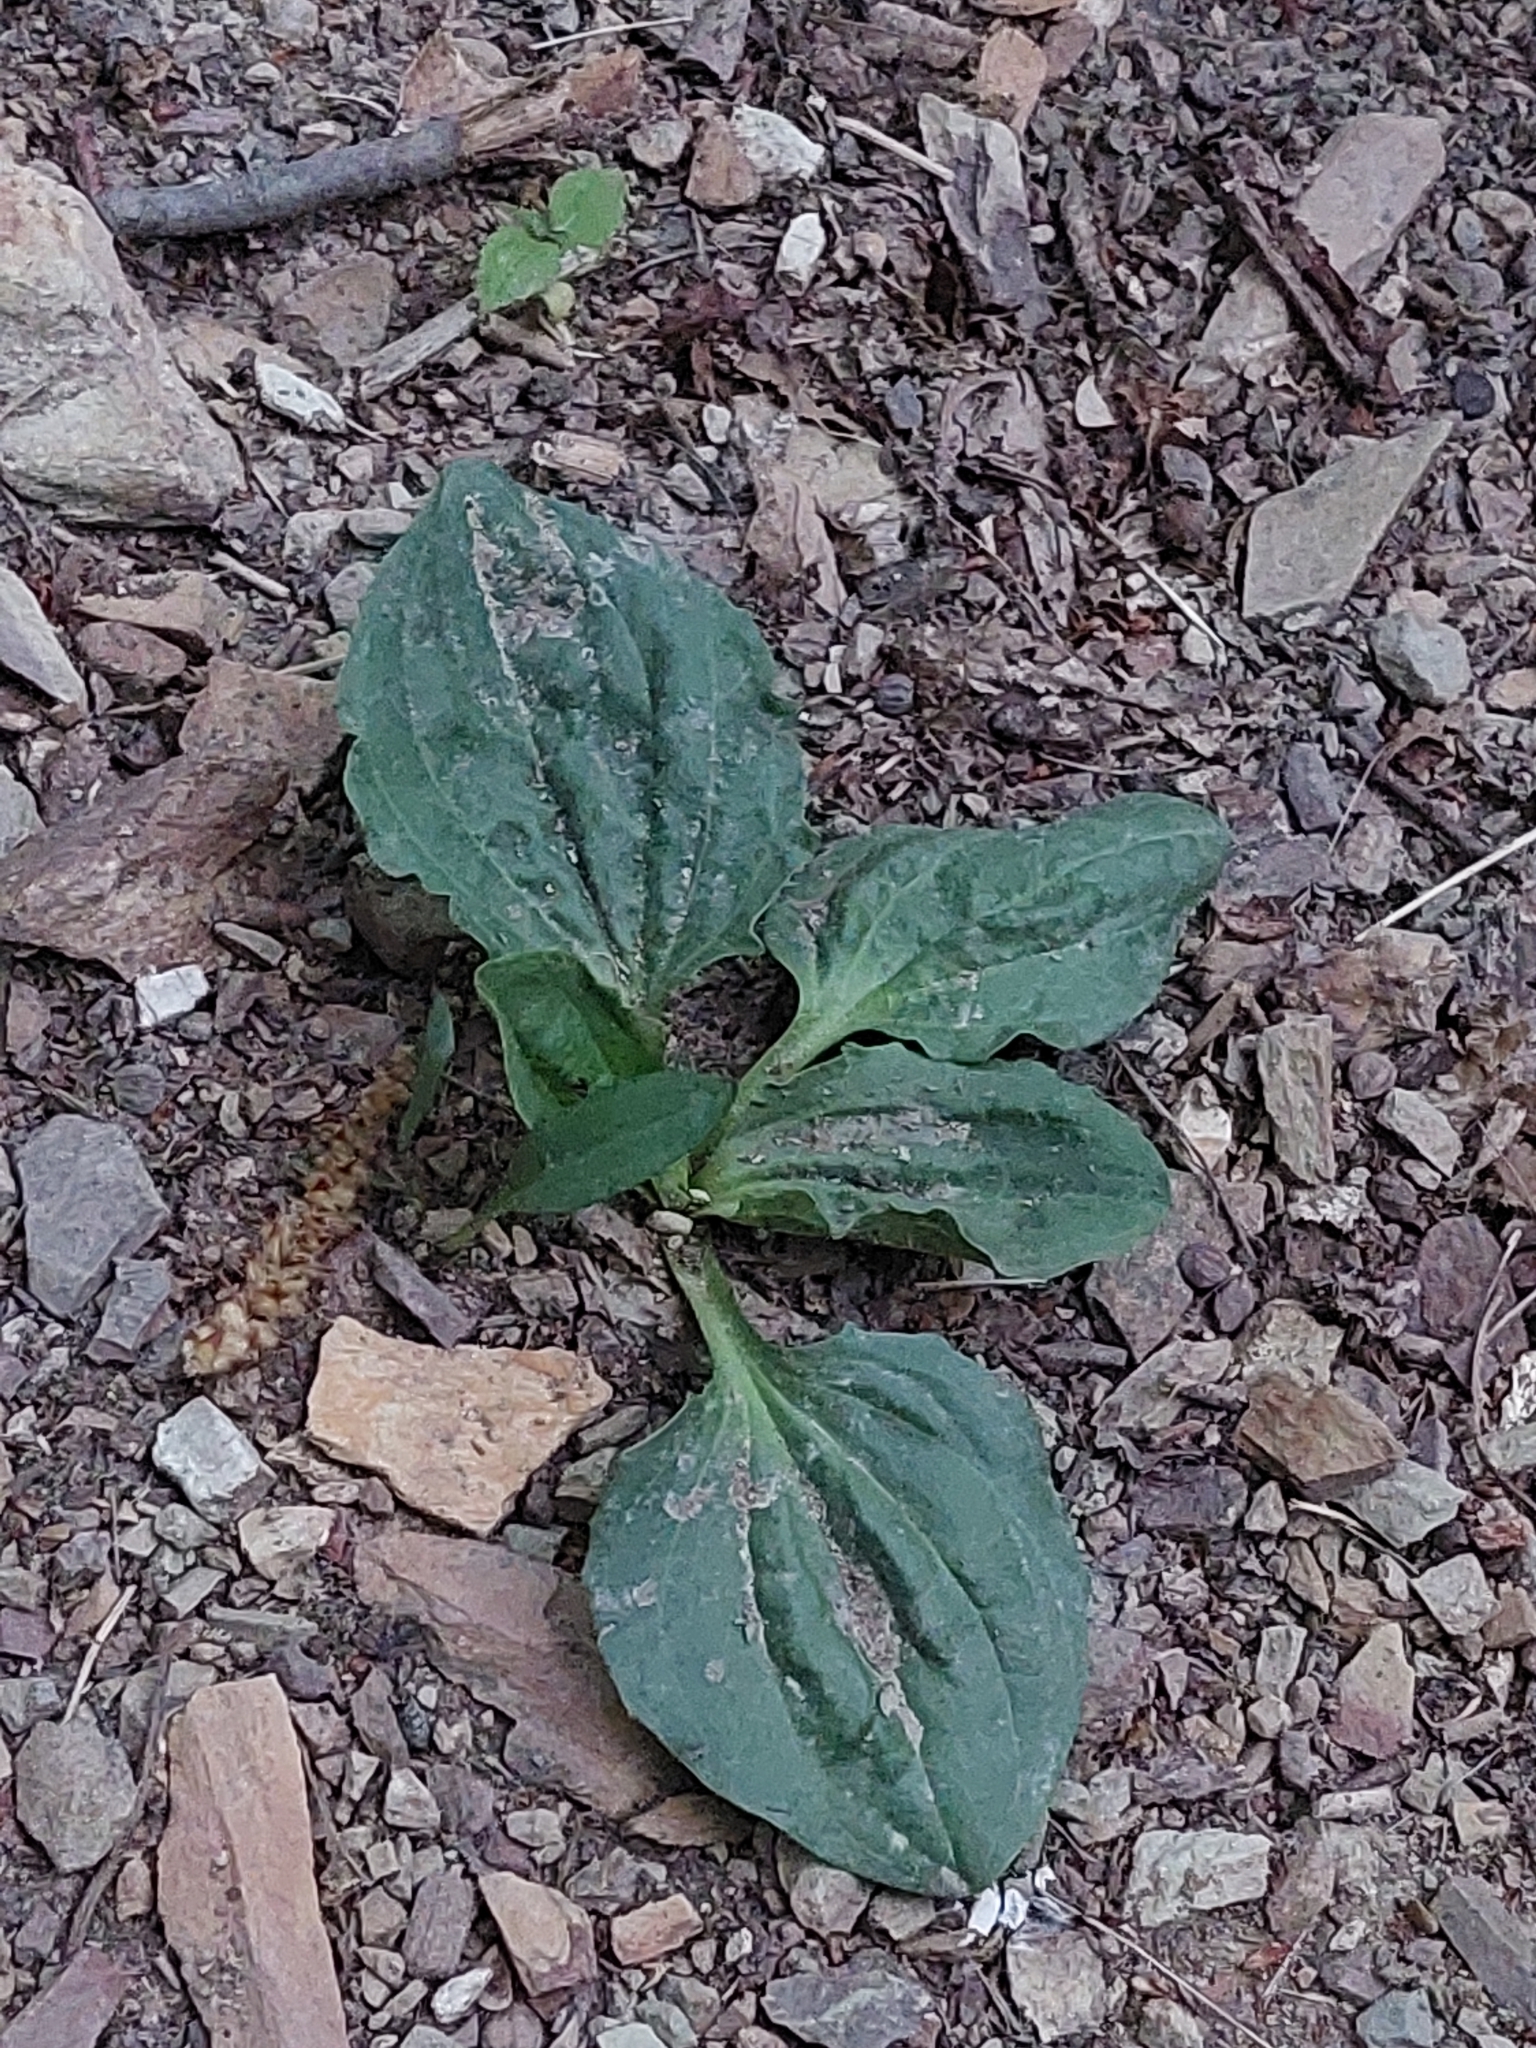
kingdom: Plantae
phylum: Tracheophyta
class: Magnoliopsida
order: Lamiales
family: Plantaginaceae
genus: Plantago
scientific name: Plantago major
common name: Common plantain
